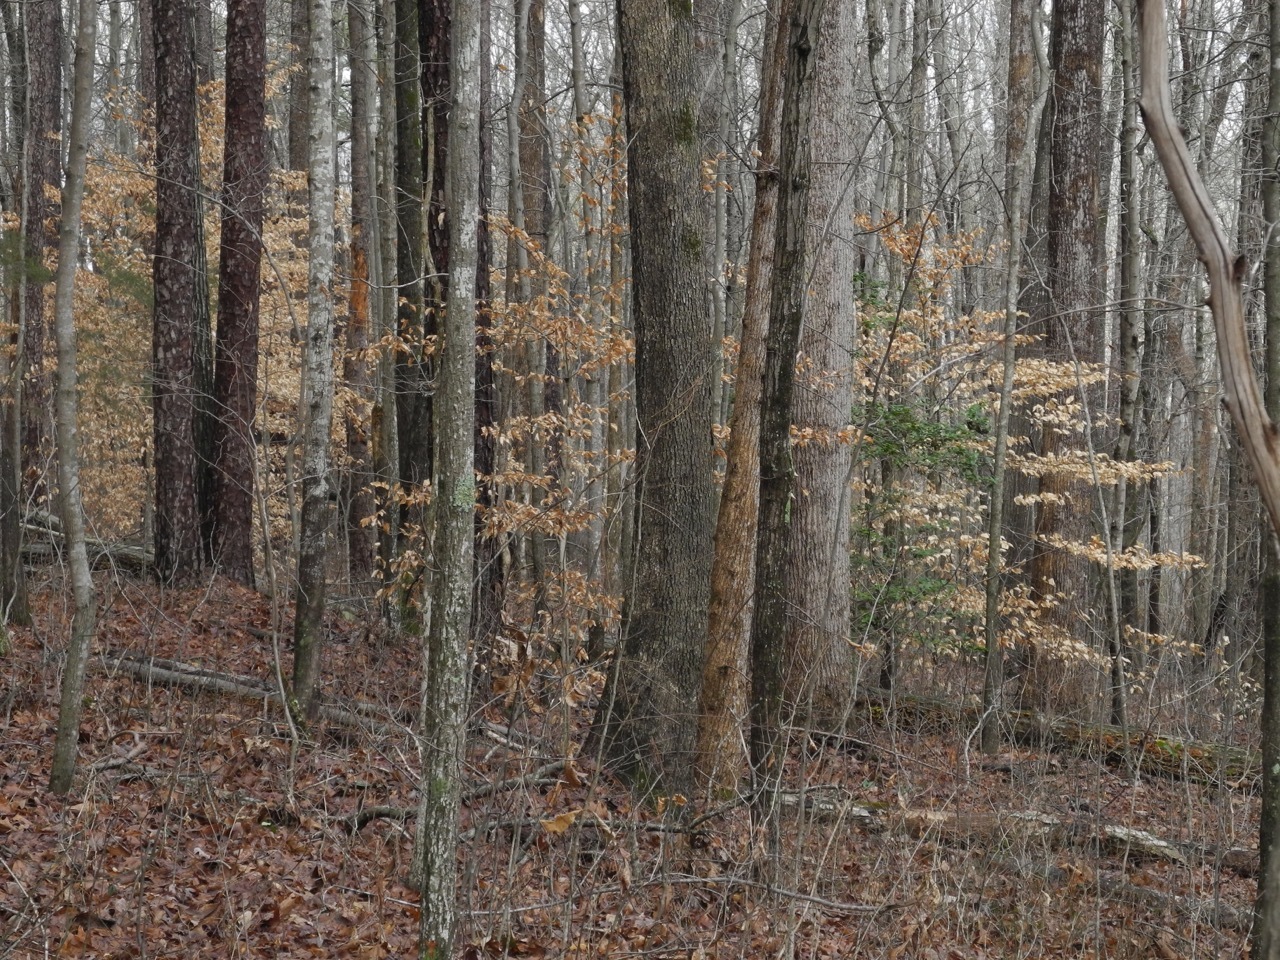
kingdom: Plantae
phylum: Tracheophyta
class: Magnoliopsida
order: Fagales
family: Fagaceae
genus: Fagus
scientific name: Fagus grandifolia
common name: American beech
